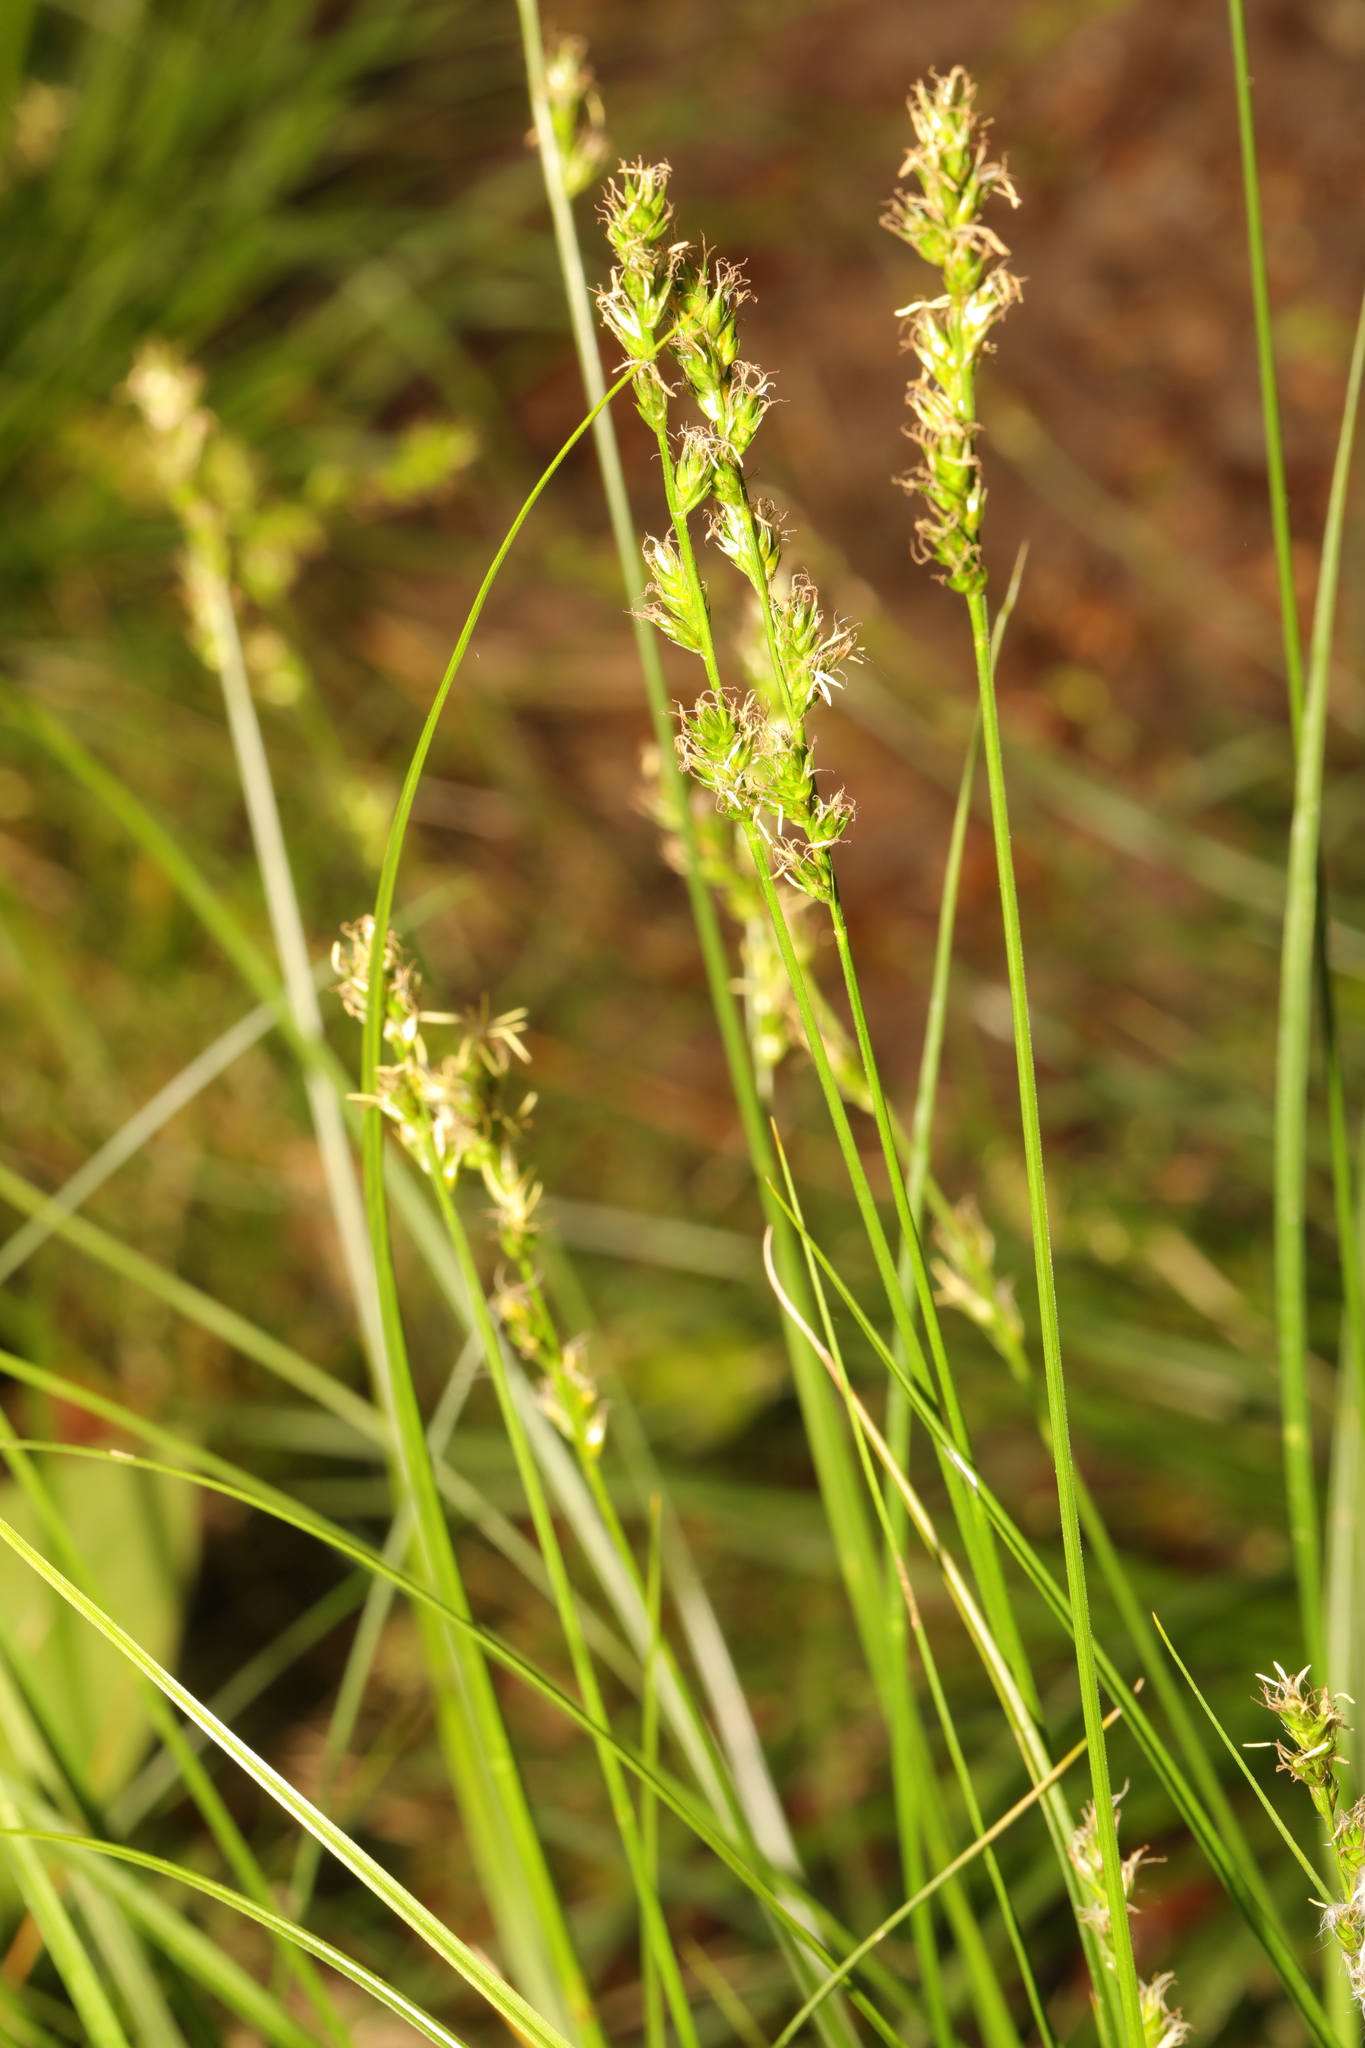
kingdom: Plantae
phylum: Tracheophyta
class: Liliopsida
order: Poales
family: Cyperaceae
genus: Carex
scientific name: Carex divulsa
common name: Grassland sedge
